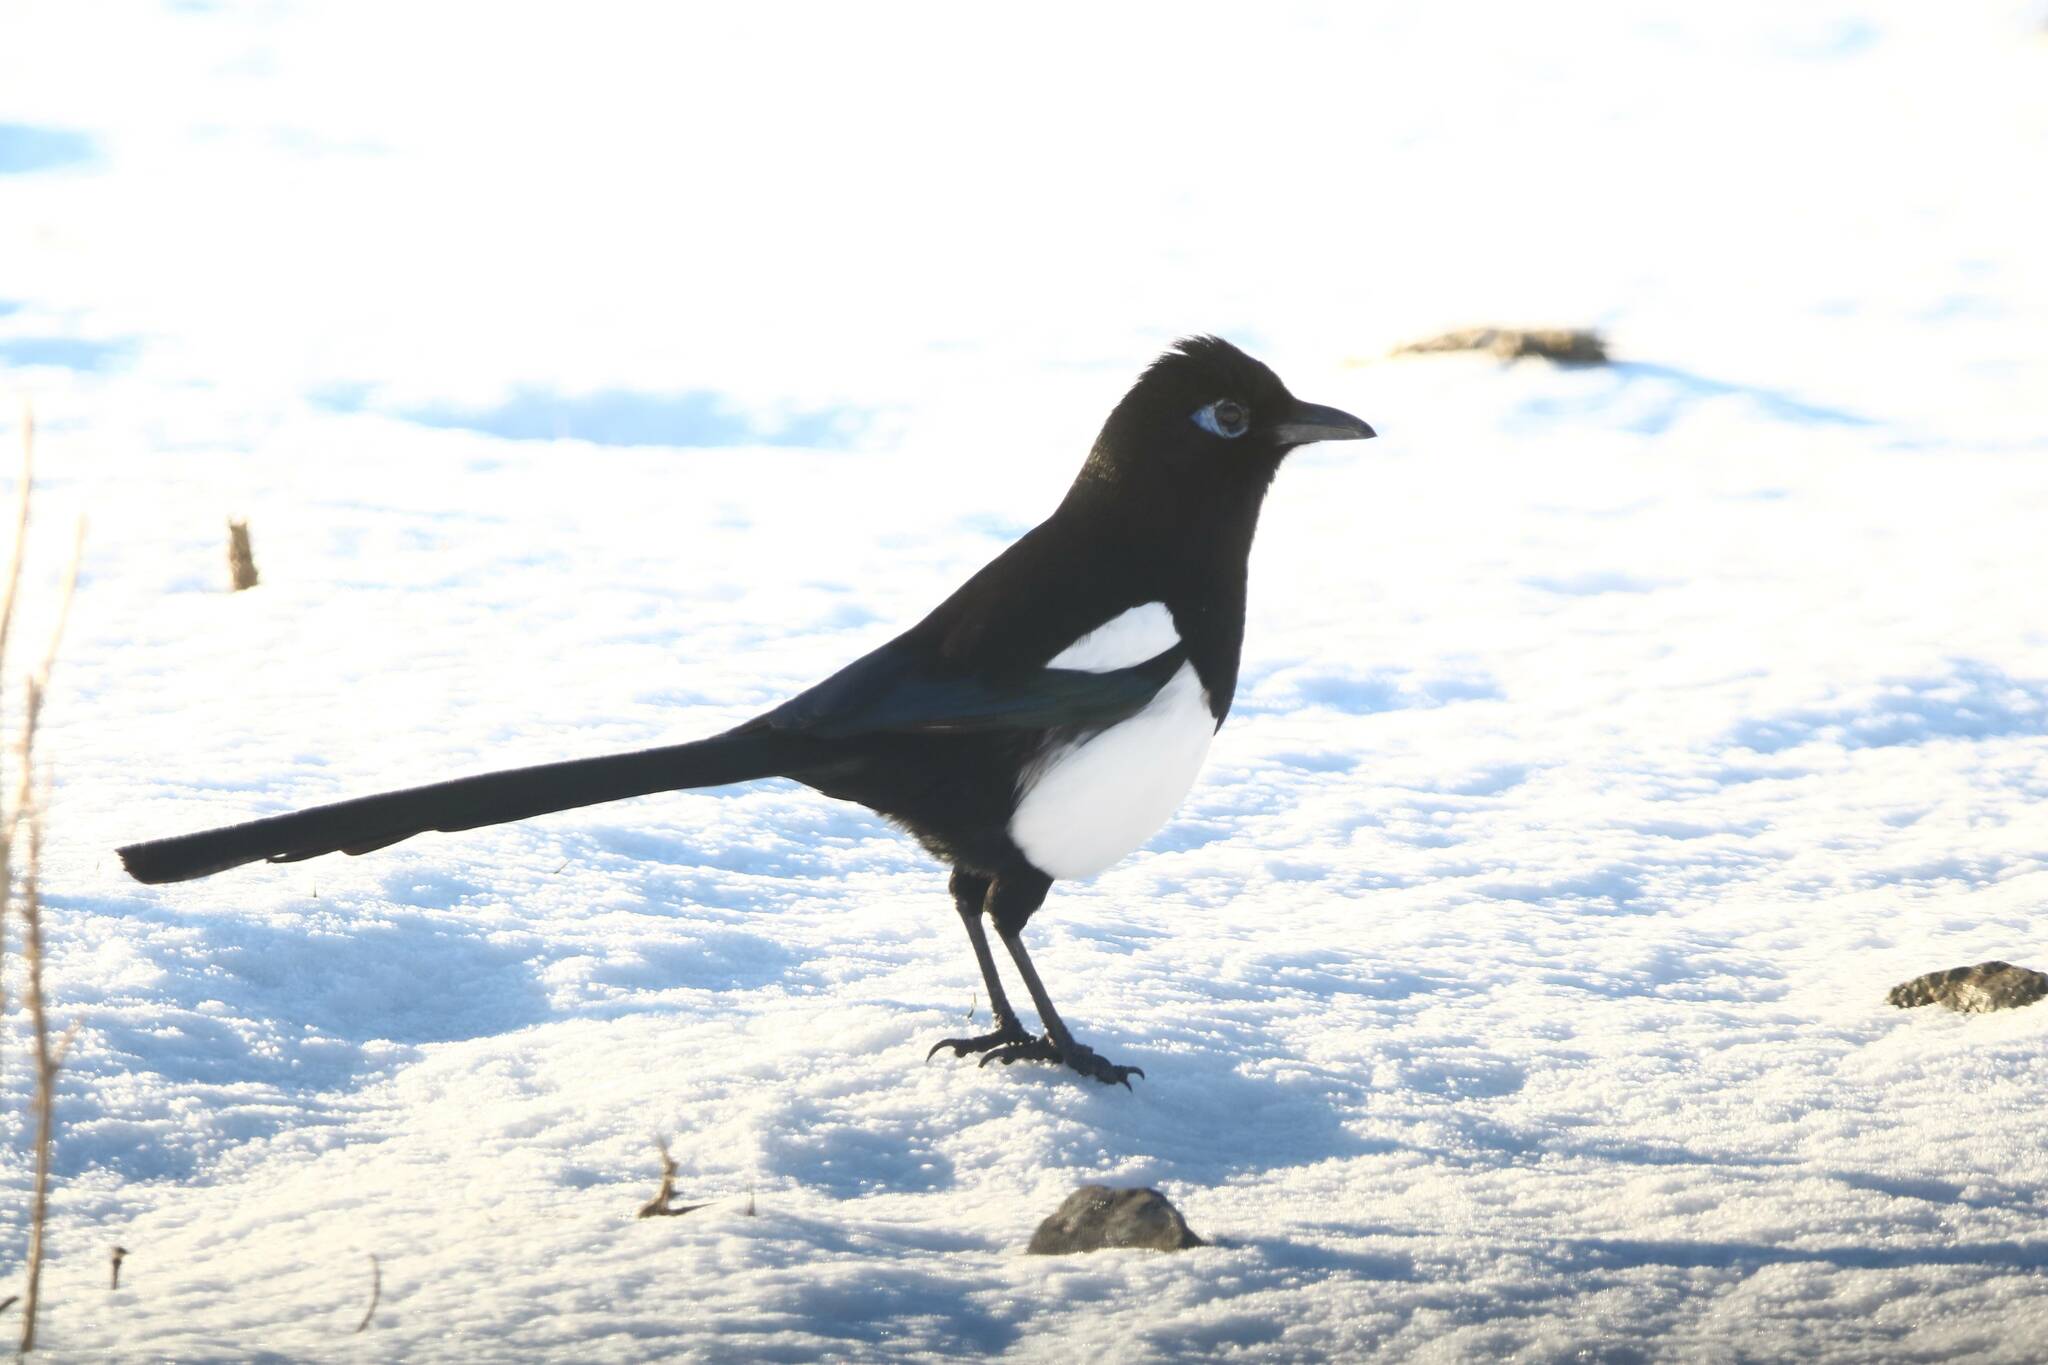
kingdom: Animalia
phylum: Chordata
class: Aves
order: Passeriformes
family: Corvidae
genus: Pica
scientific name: Pica mauritanica
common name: Maghreb magpie
